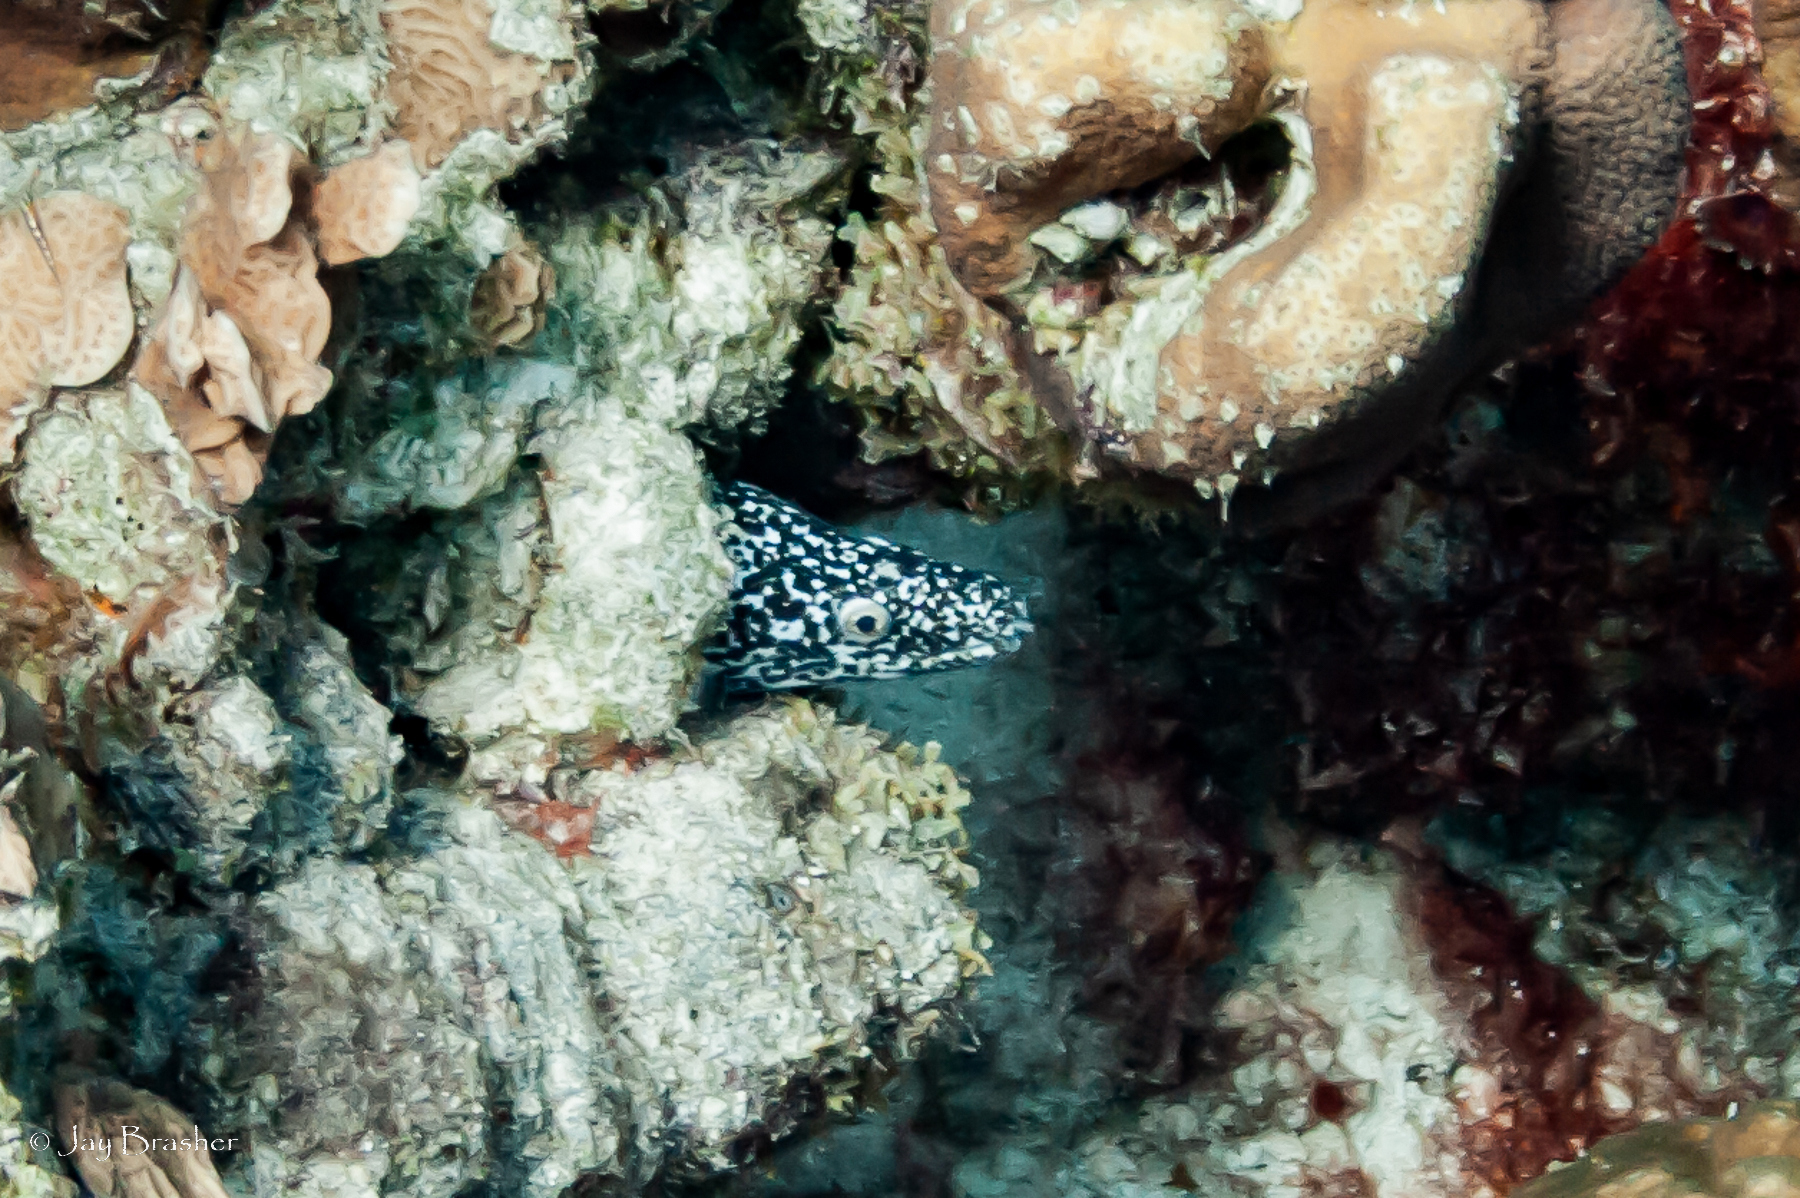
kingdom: Animalia
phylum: Chordata
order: Anguilliformes
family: Muraenidae
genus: Gymnothorax
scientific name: Gymnothorax moringa
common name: Spotted moray
